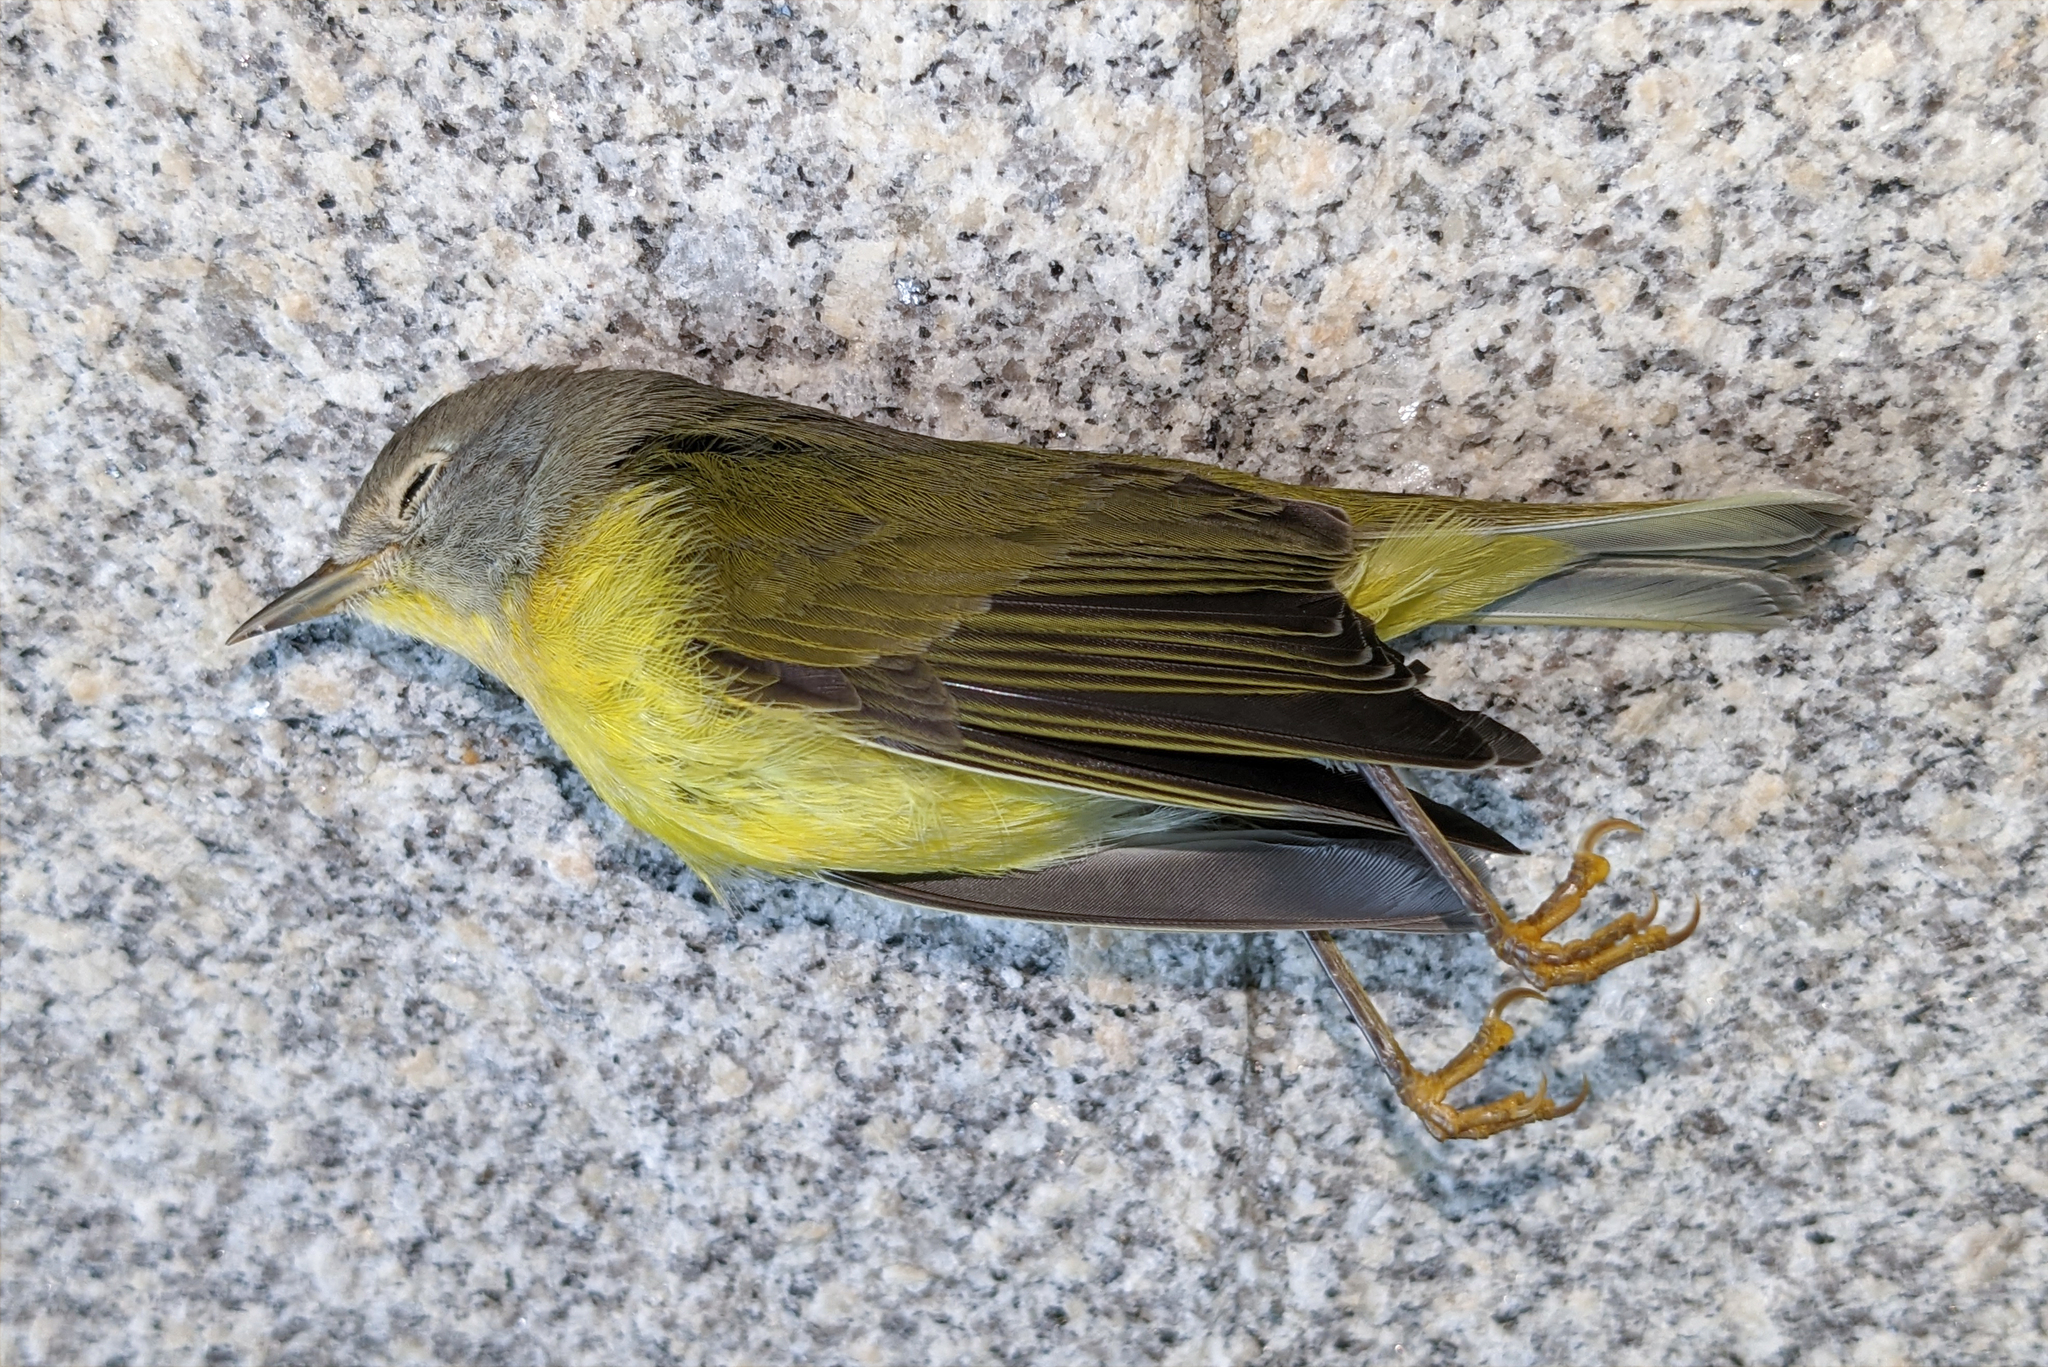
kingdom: Animalia
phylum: Chordata
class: Aves
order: Passeriformes
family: Parulidae
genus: Leiothlypis
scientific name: Leiothlypis ruficapilla
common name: Nashville warbler
